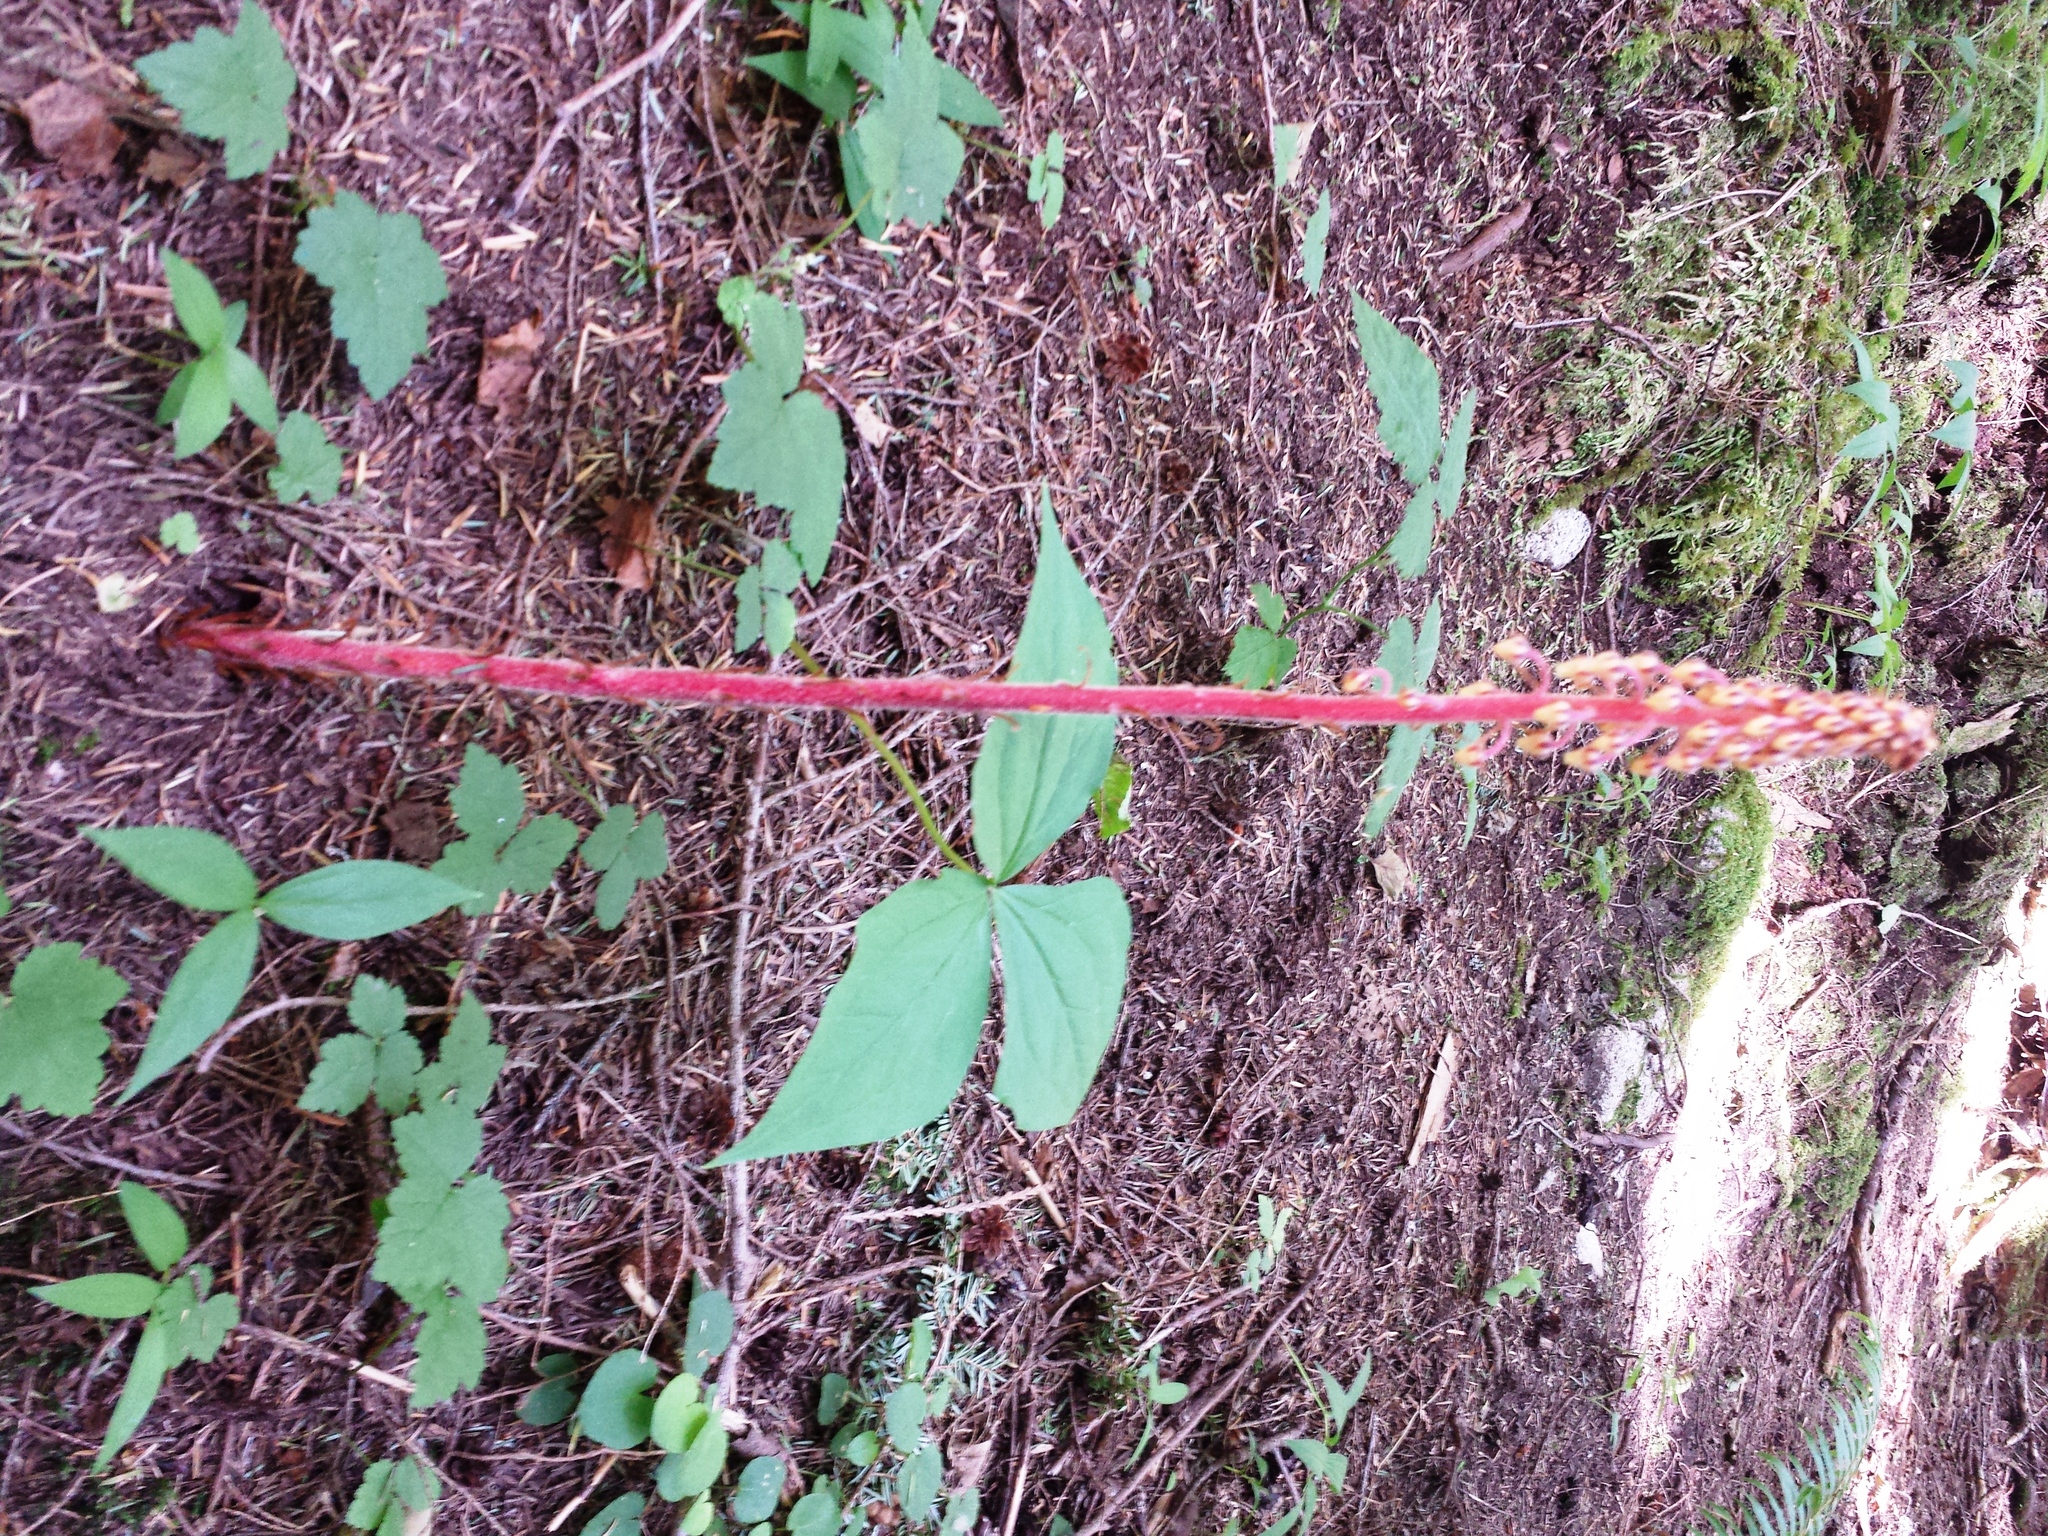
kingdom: Plantae
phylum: Tracheophyta
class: Magnoliopsida
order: Ericales
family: Ericaceae
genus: Pterospora
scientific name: Pterospora andromedea
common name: Giant bird's-nest
